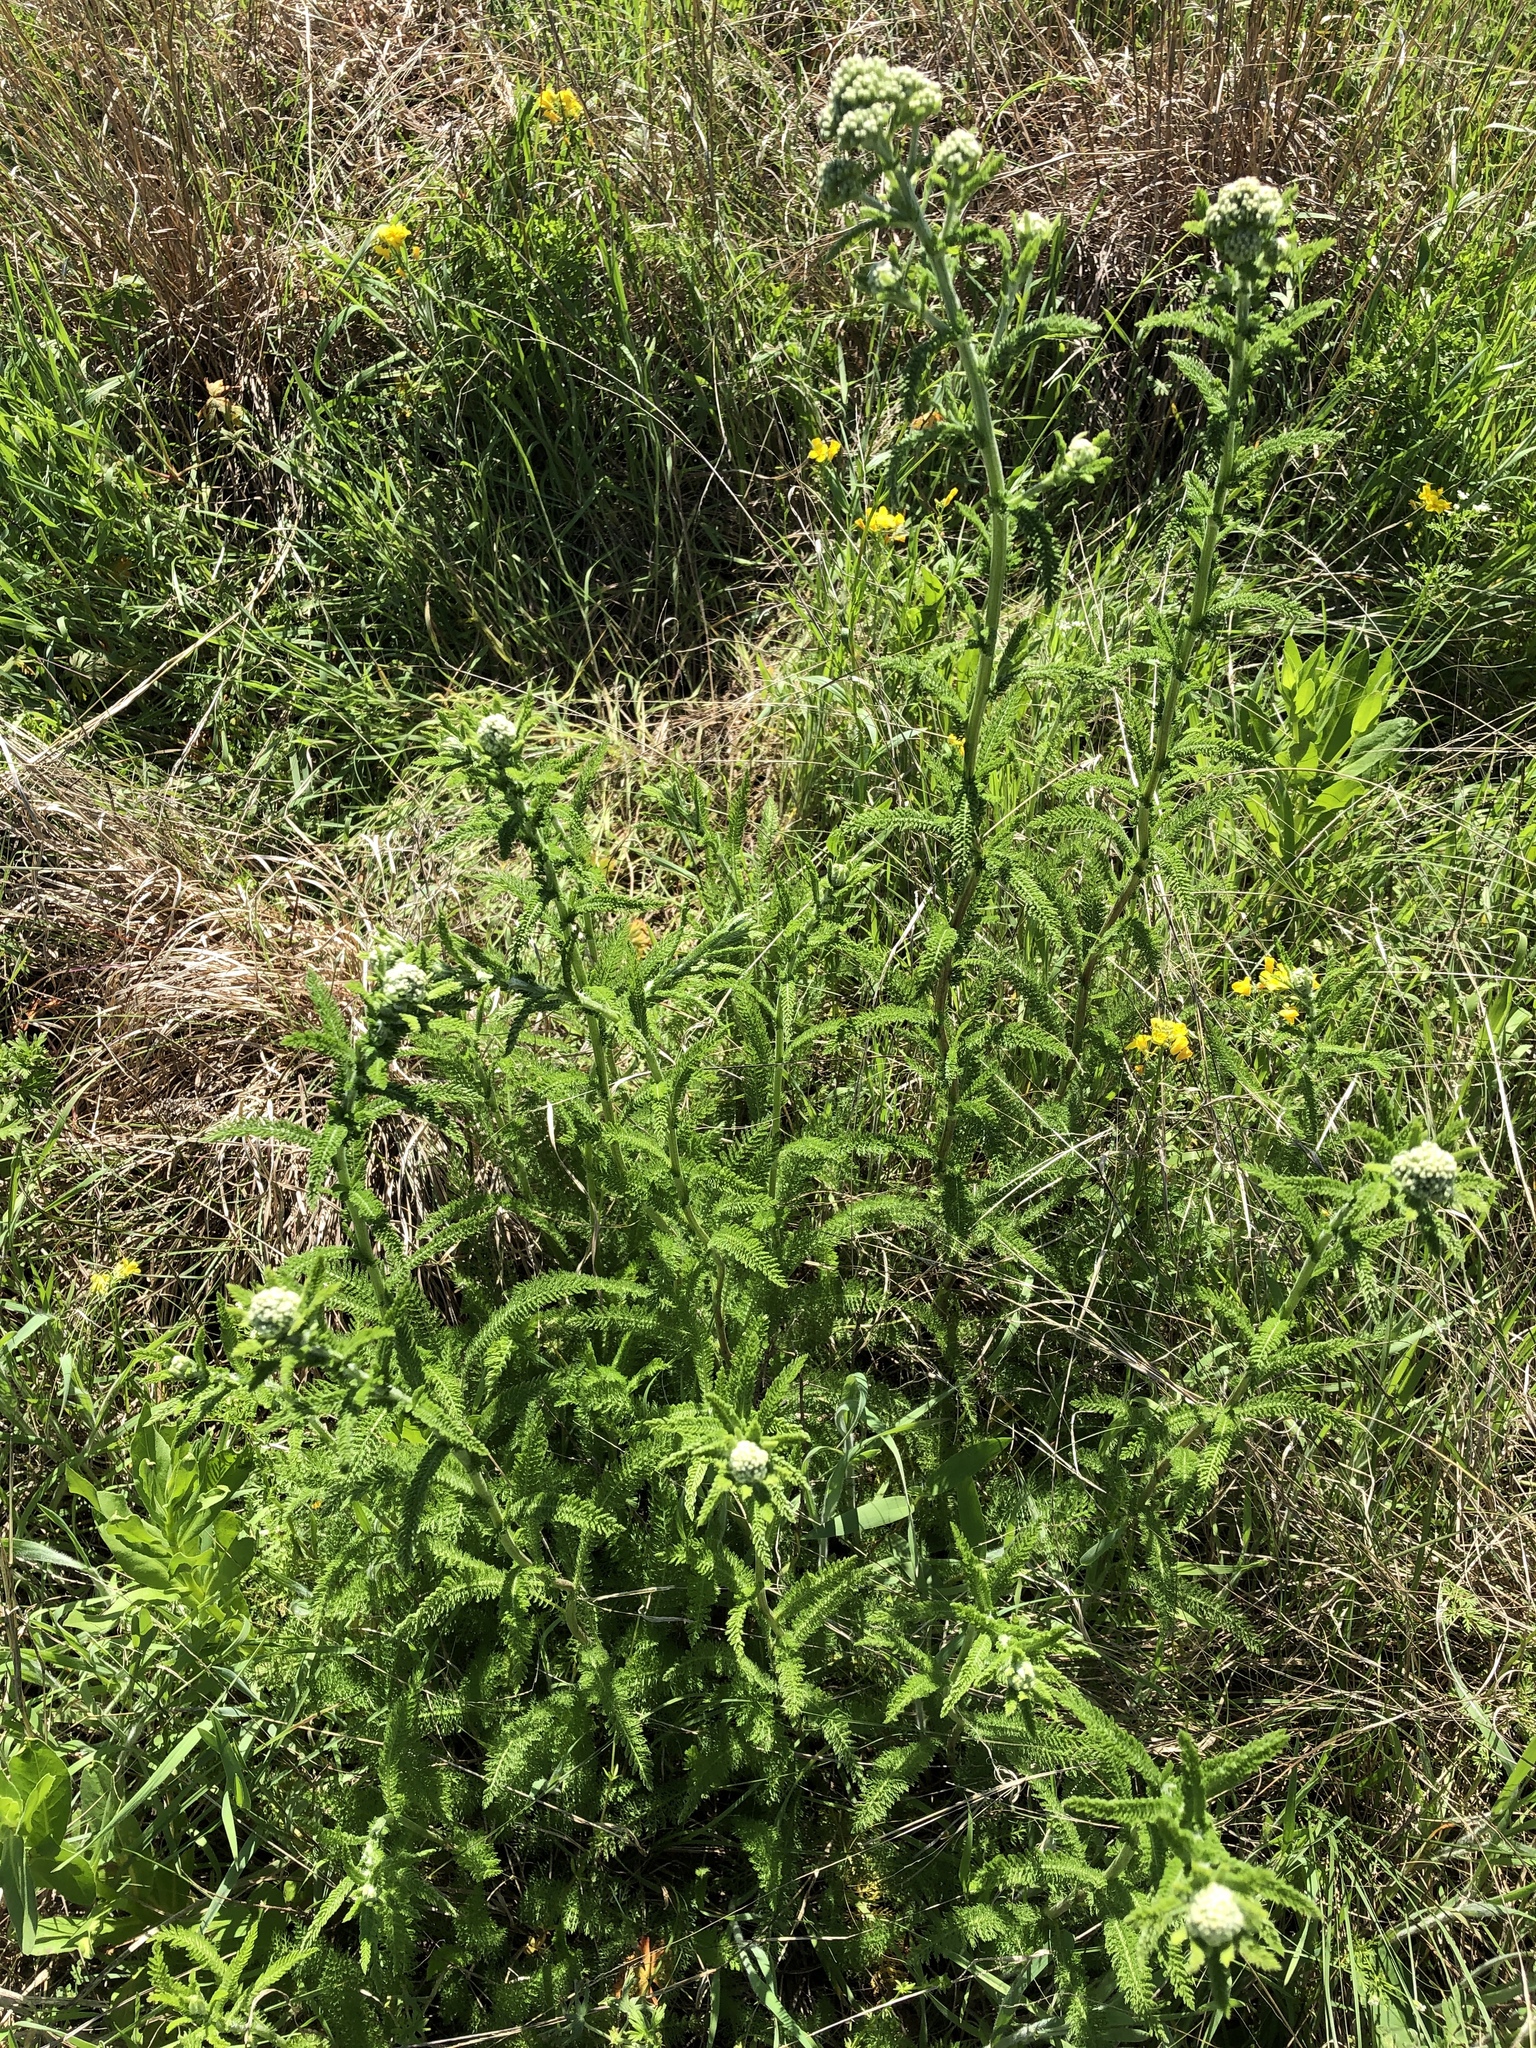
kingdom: Plantae
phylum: Tracheophyta
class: Magnoliopsida
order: Asterales
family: Asteraceae
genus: Achillea
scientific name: Achillea millefolium
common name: Yarrow
